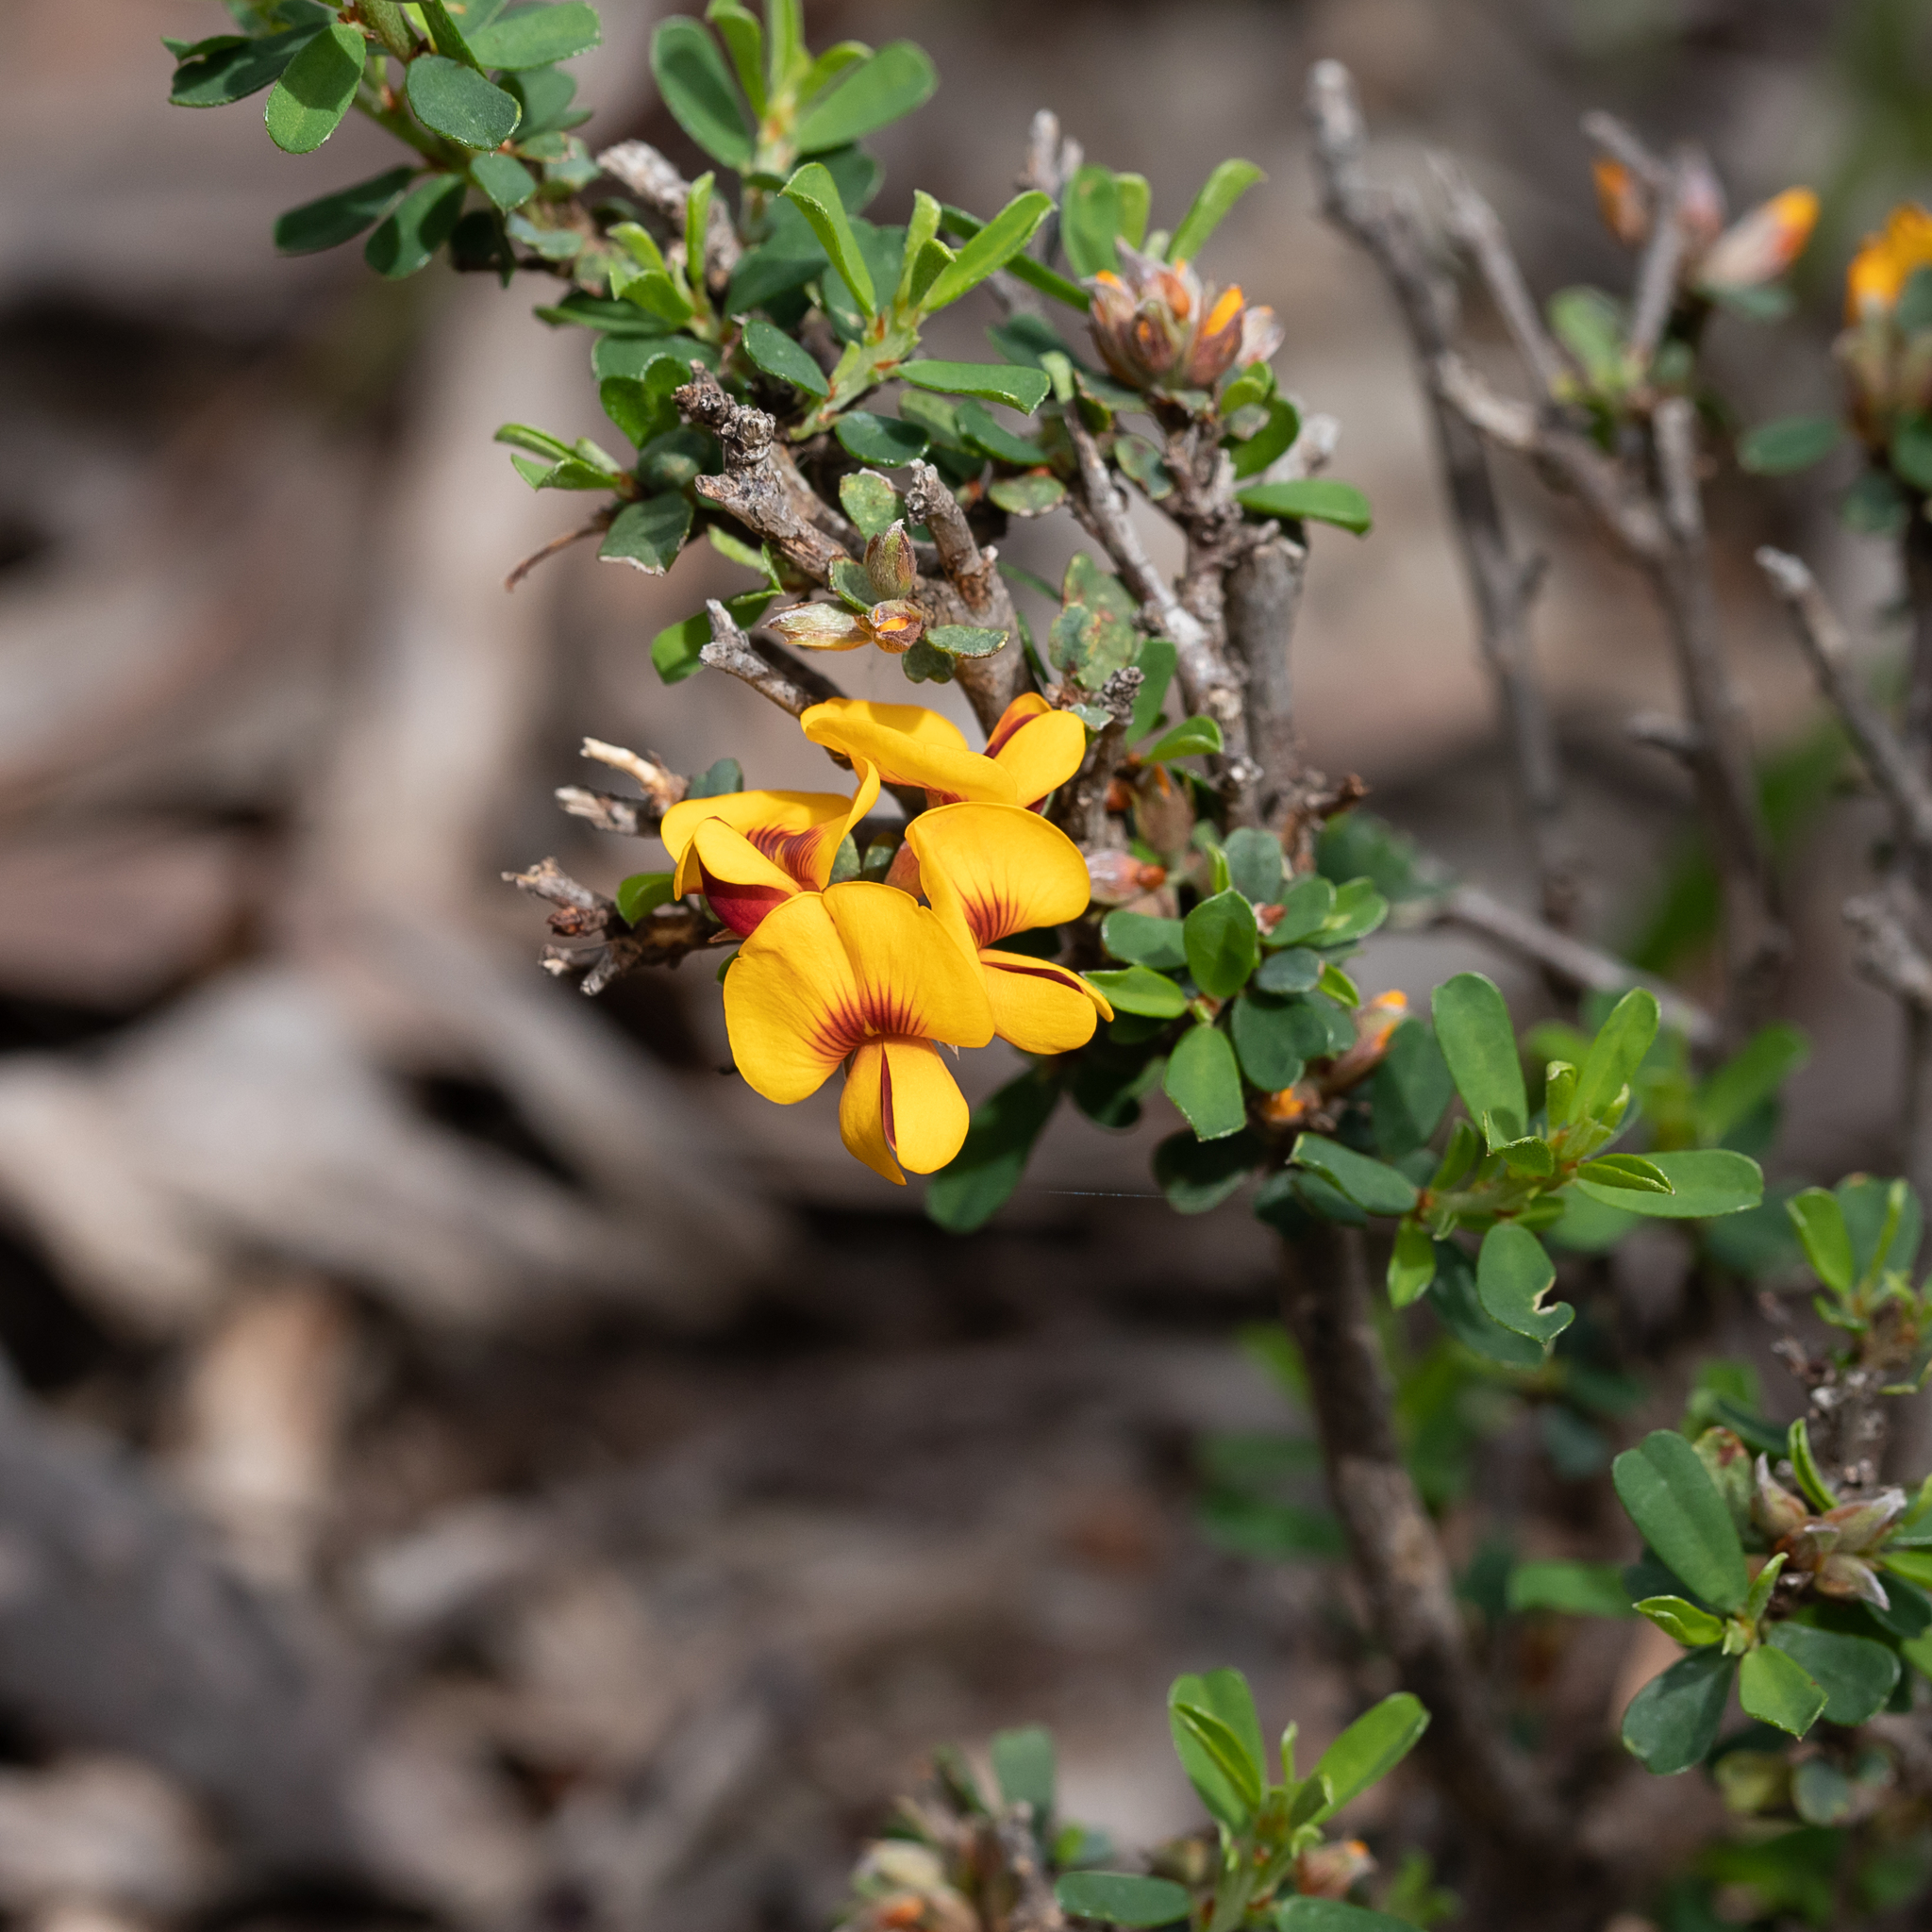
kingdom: Plantae
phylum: Tracheophyta
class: Magnoliopsida
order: Fabales
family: Fabaceae
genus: Pultenaea
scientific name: Pultenaea largiflorens
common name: Twiggy bush-pea
